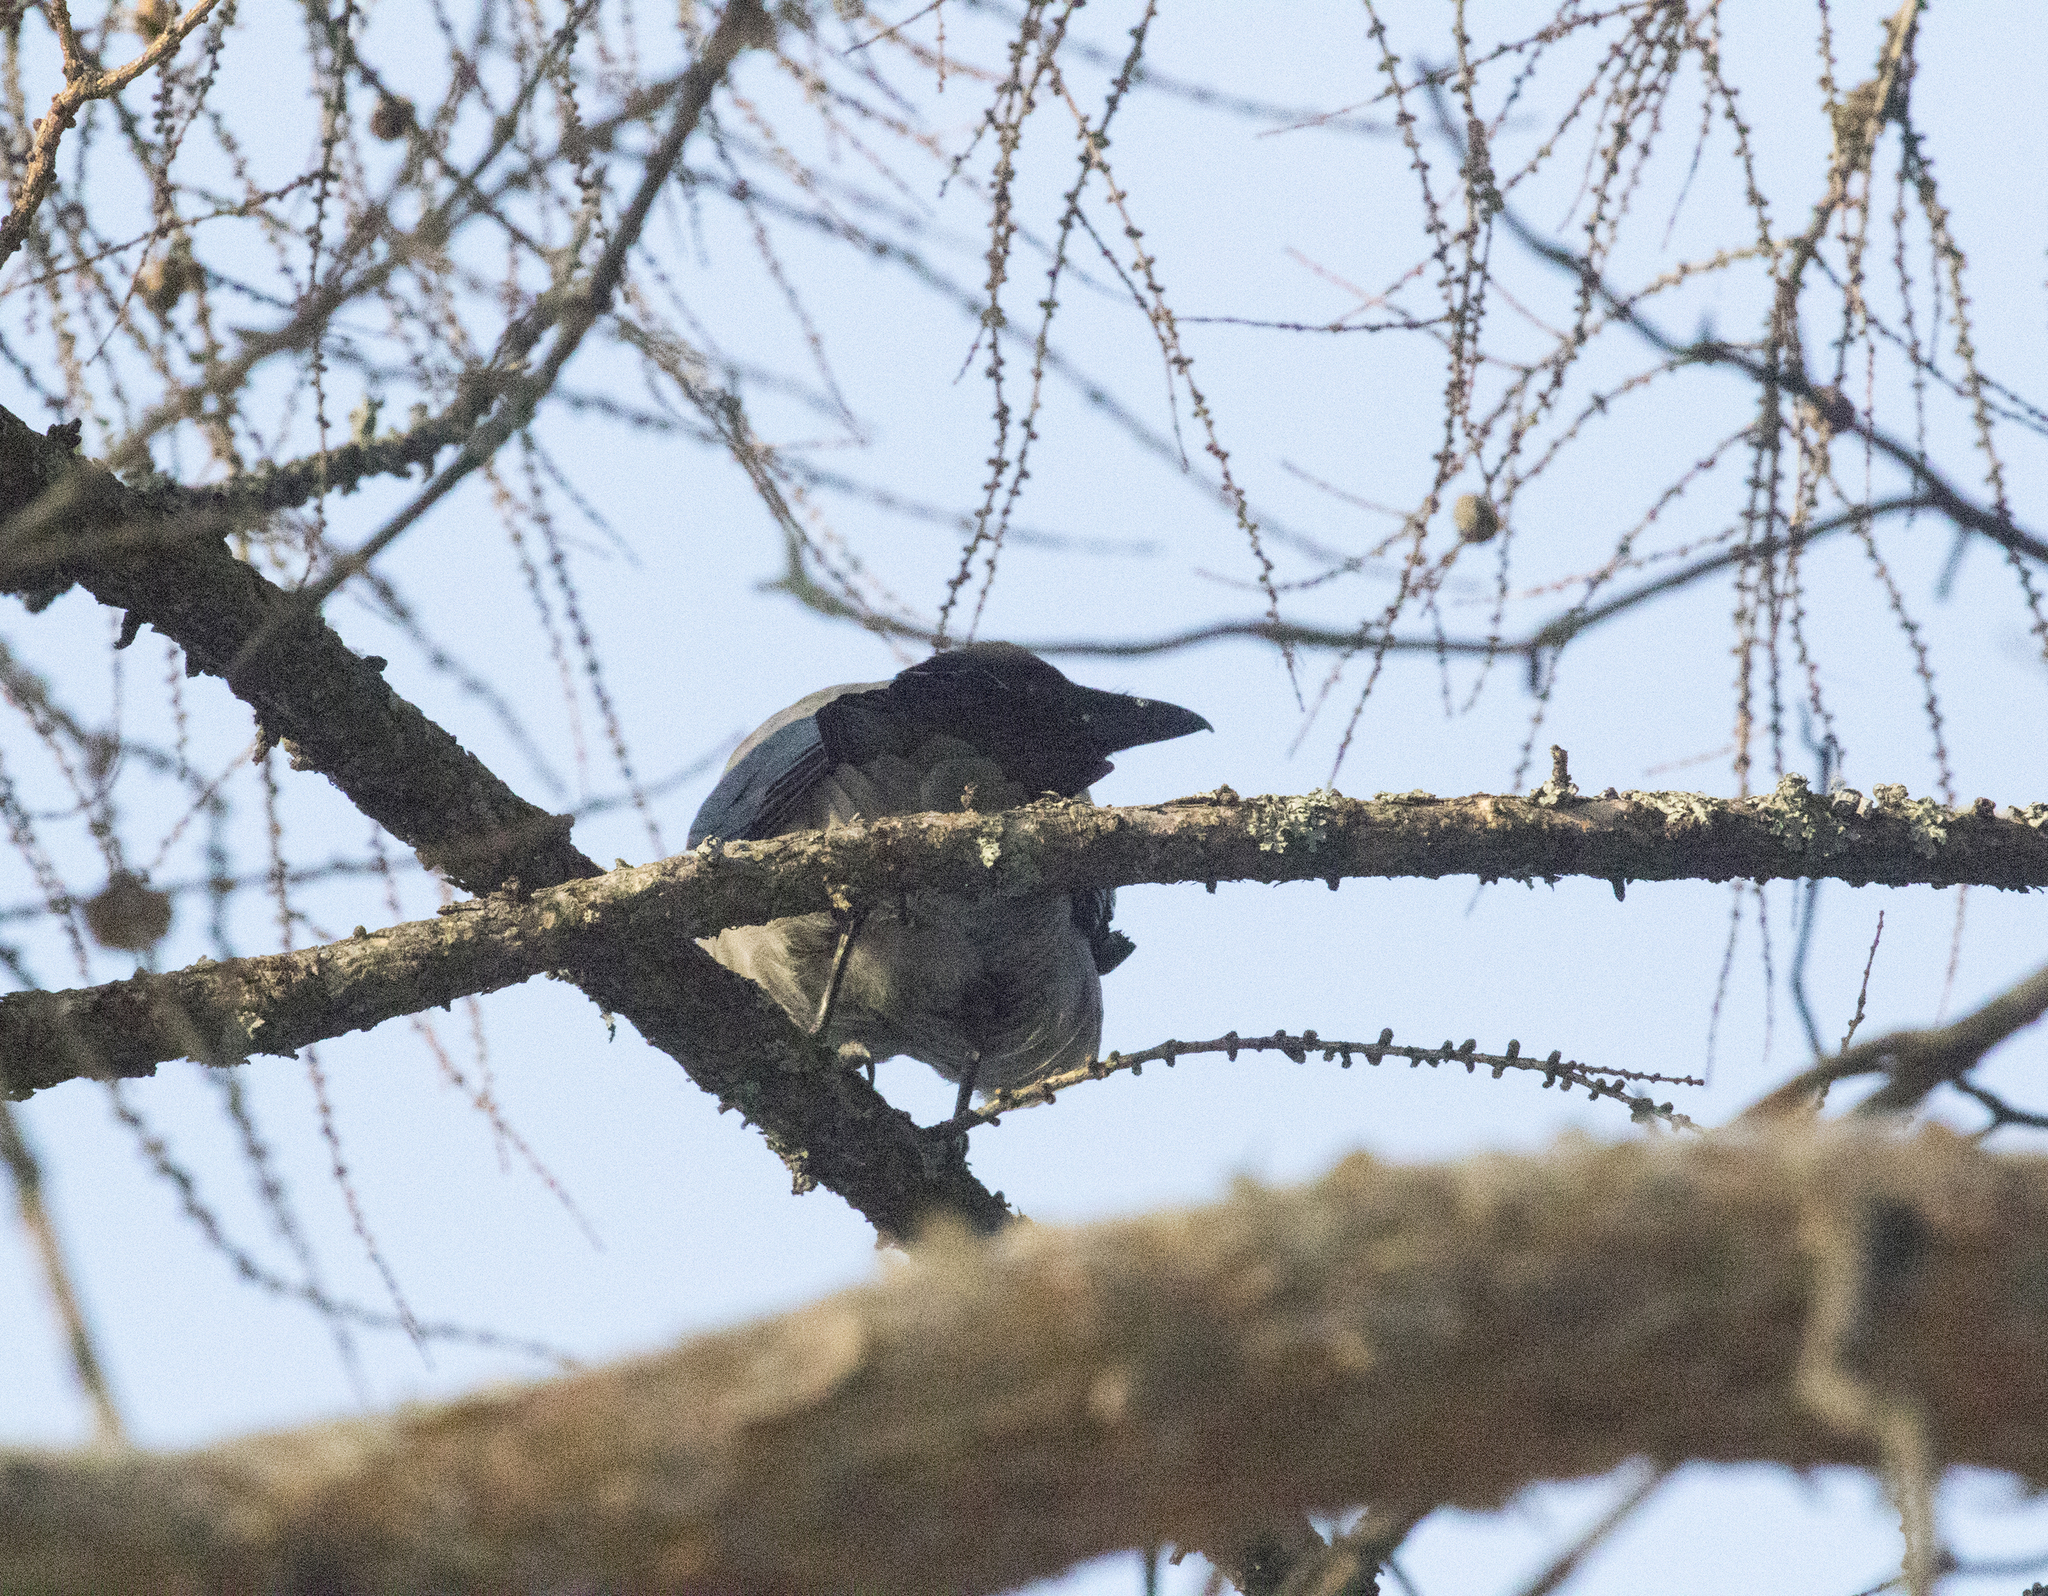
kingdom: Animalia
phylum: Chordata
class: Aves
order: Passeriformes
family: Corvidae
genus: Corvus
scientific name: Corvus cornix
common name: Hooded crow
